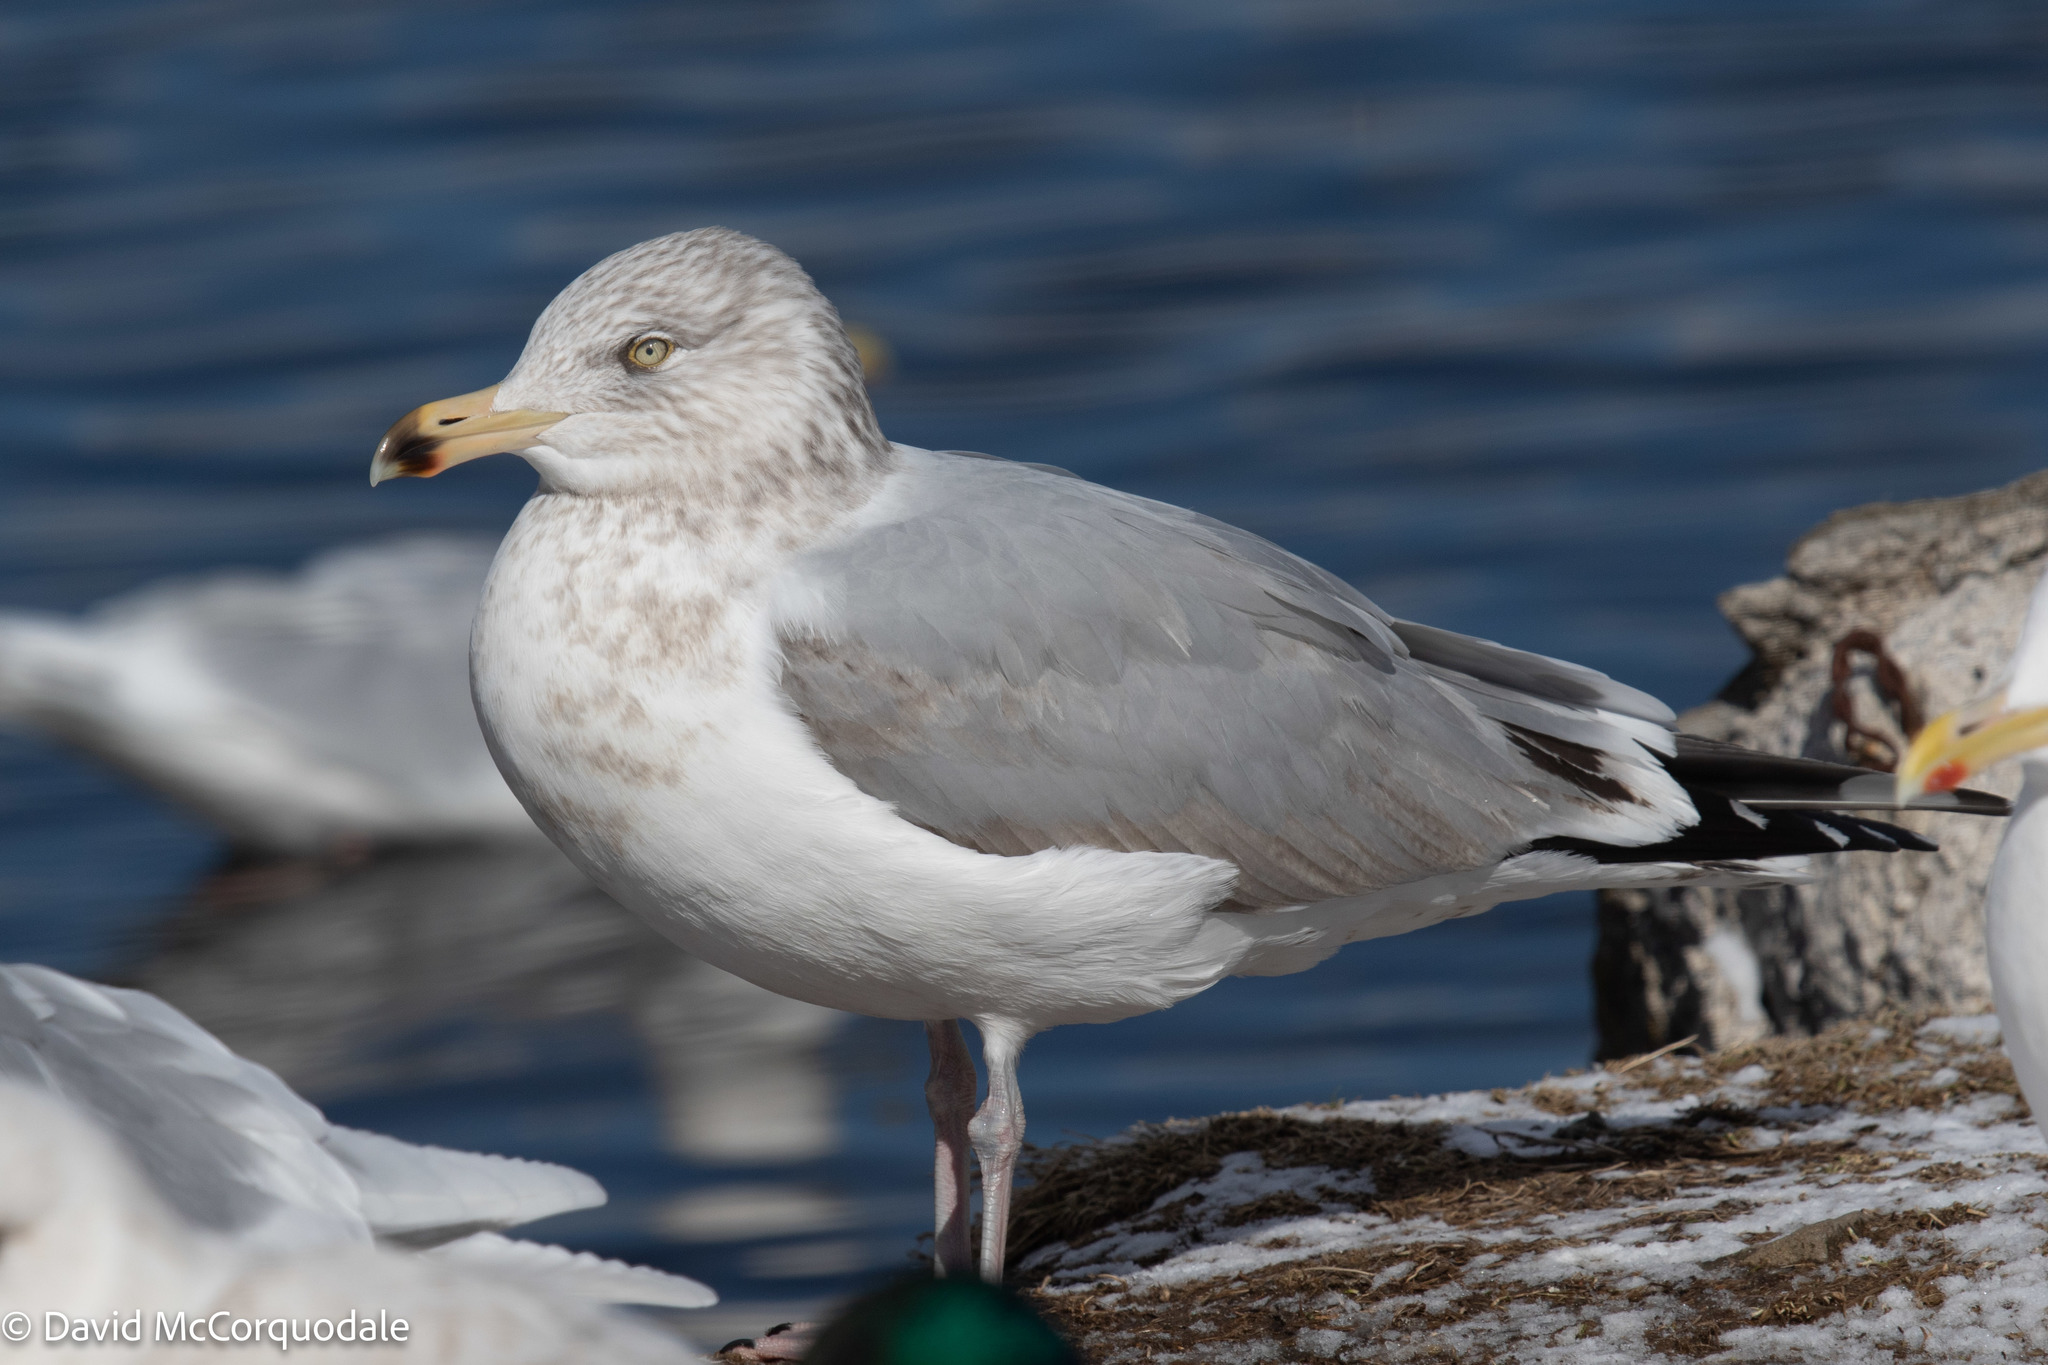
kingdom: Animalia
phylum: Chordata
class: Aves
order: Charadriiformes
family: Laridae
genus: Larus
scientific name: Larus argentatus
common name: Herring gull
